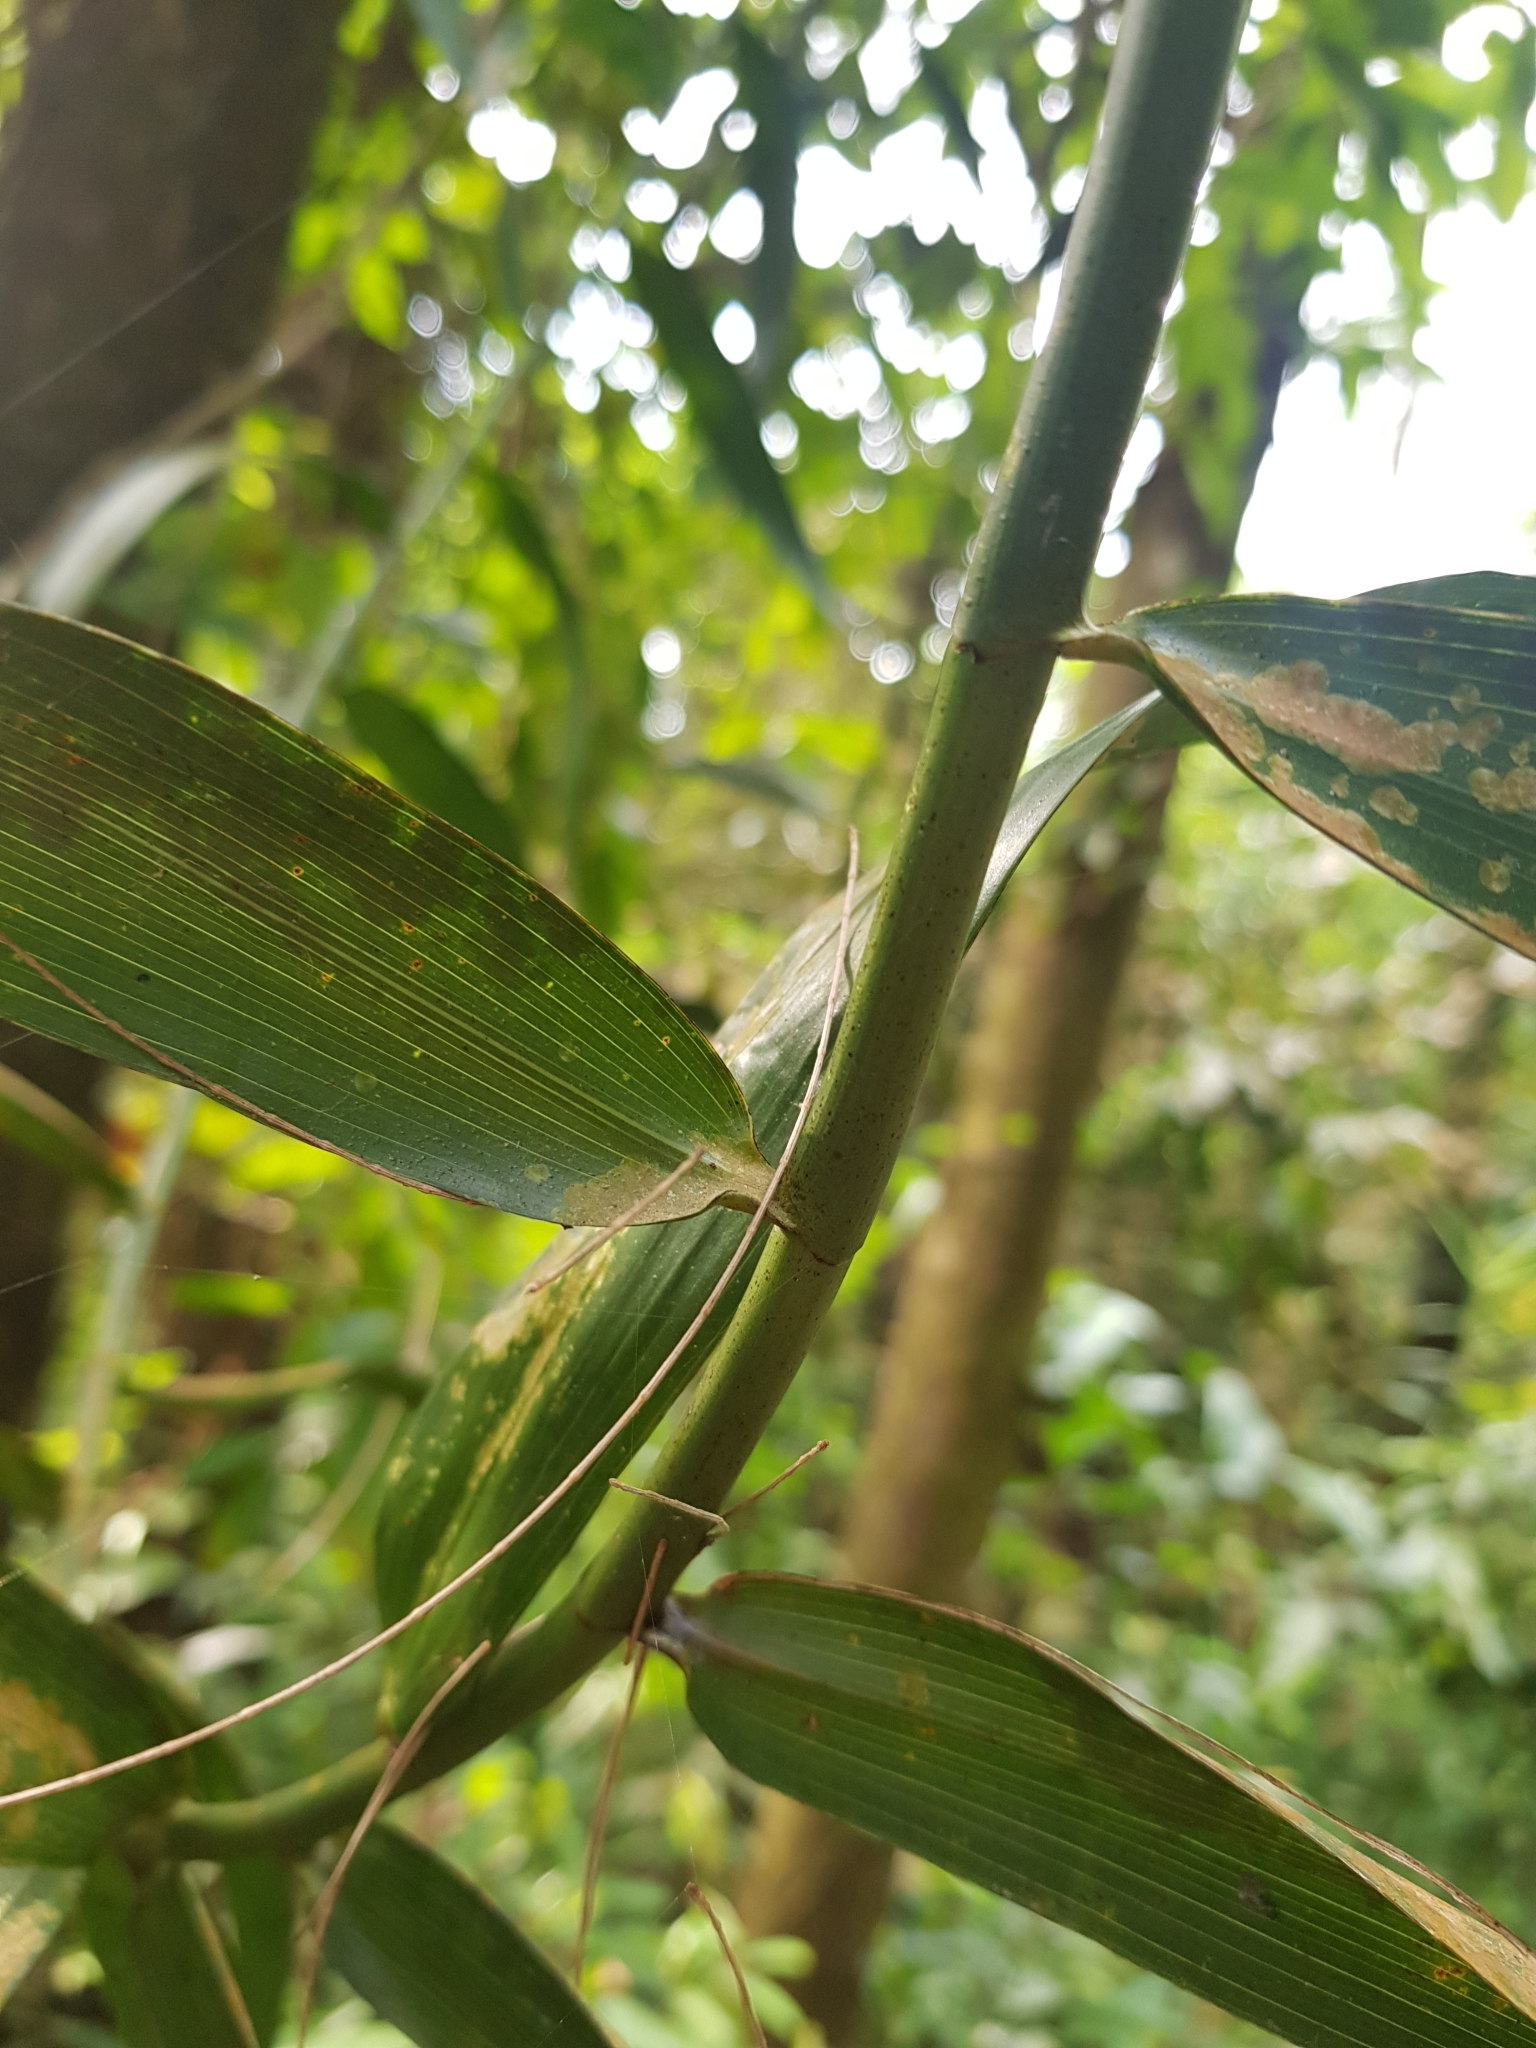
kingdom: Plantae
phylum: Tracheophyta
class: Liliopsida
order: Poales
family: Flagellariaceae
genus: Flagellaria
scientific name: Flagellaria indica
